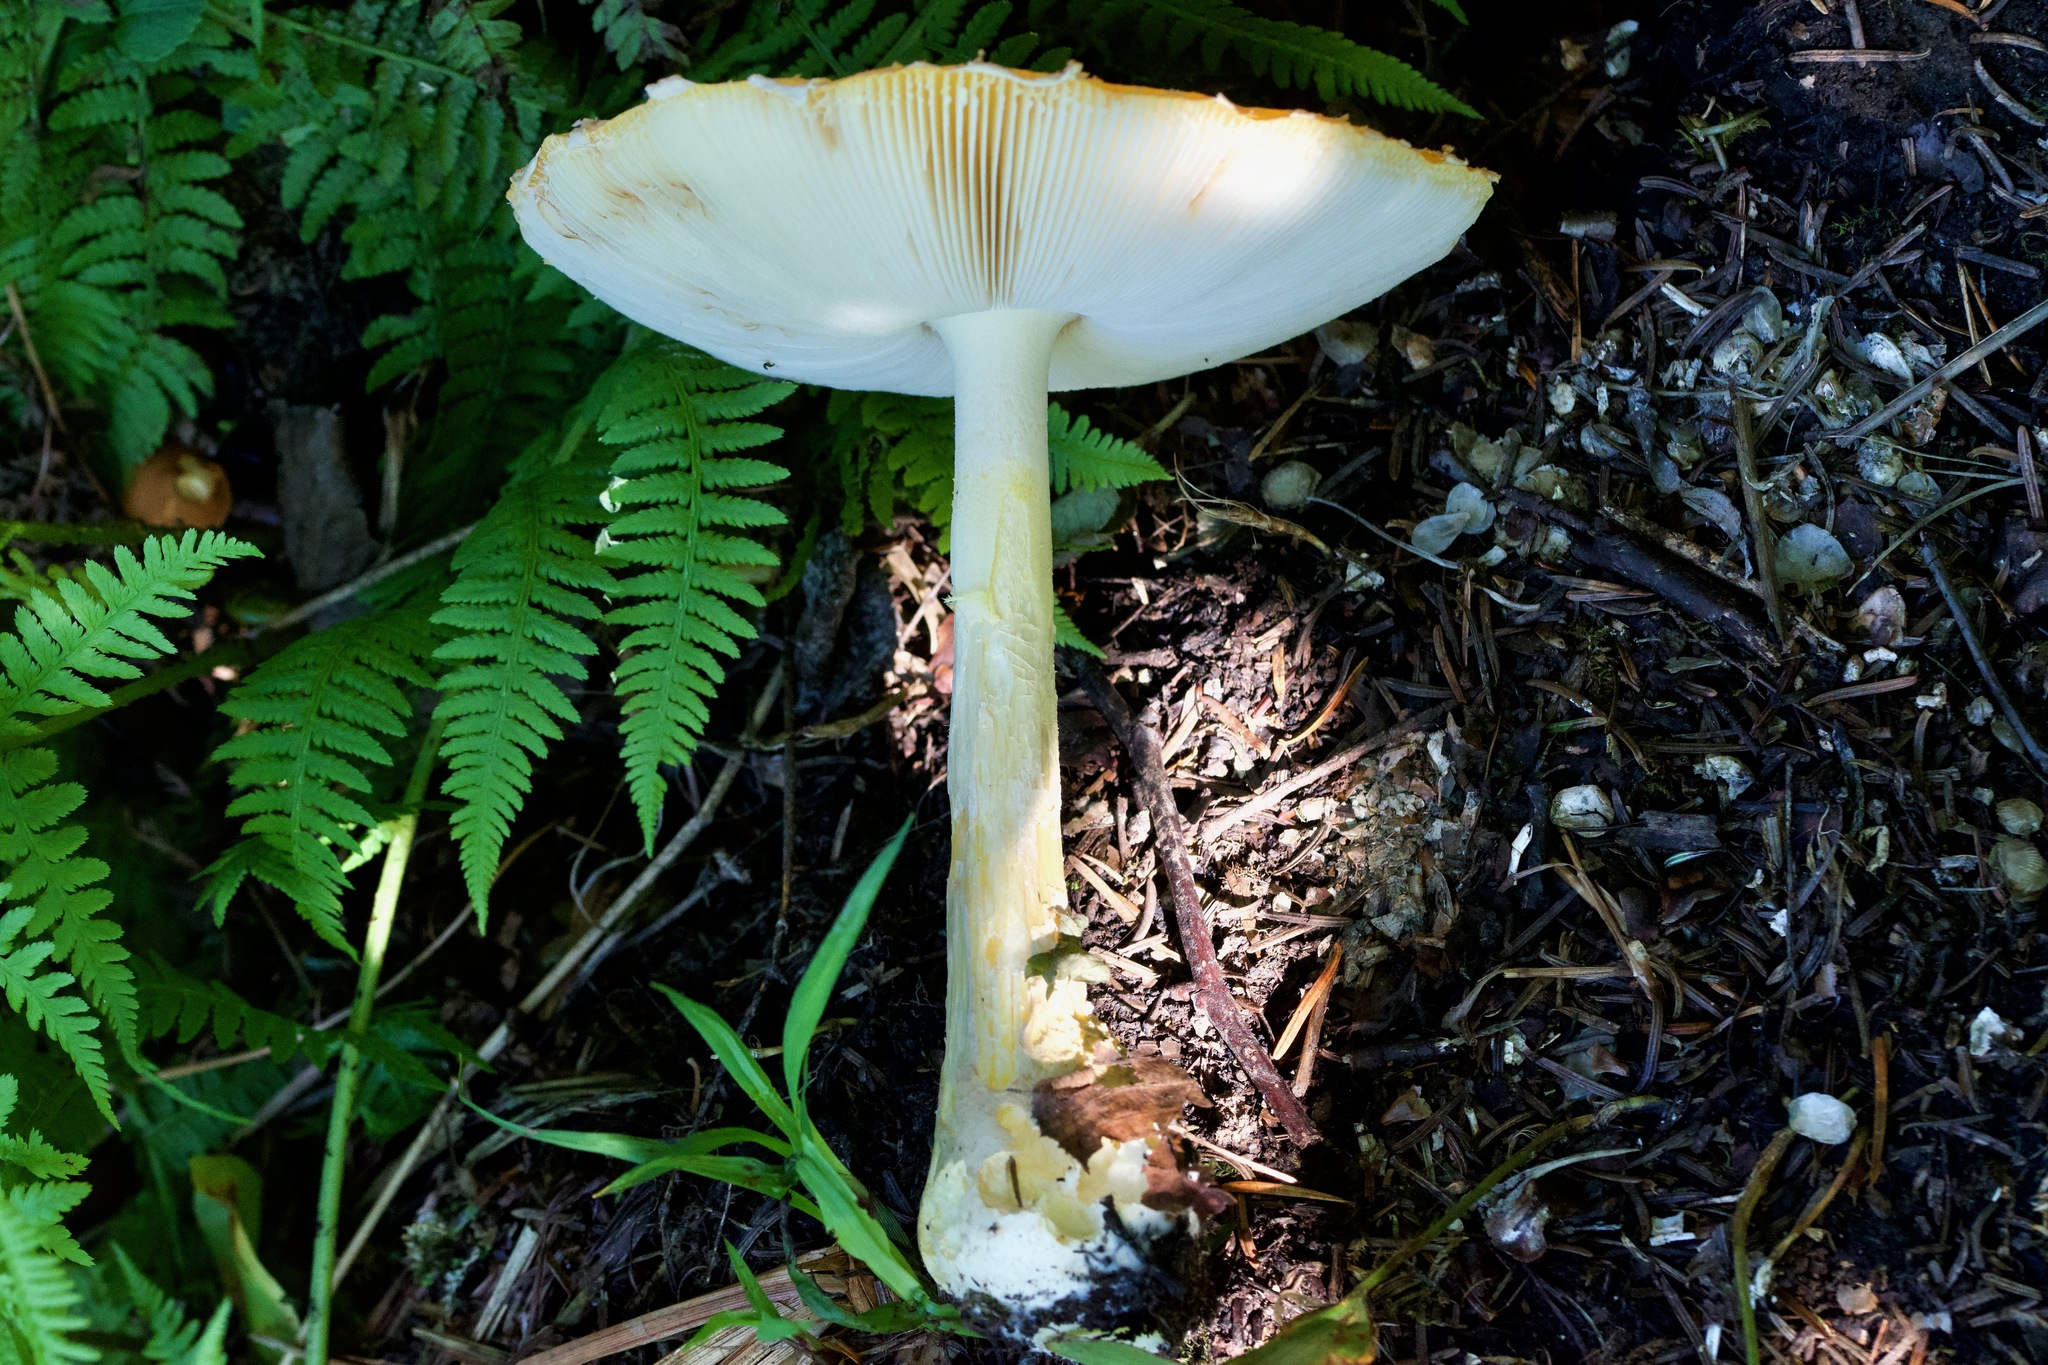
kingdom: Fungi
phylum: Basidiomycota
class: Agaricomycetes
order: Agaricales
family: Amanitaceae
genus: Amanita
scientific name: Amanita muscaria
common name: Fly agaric
